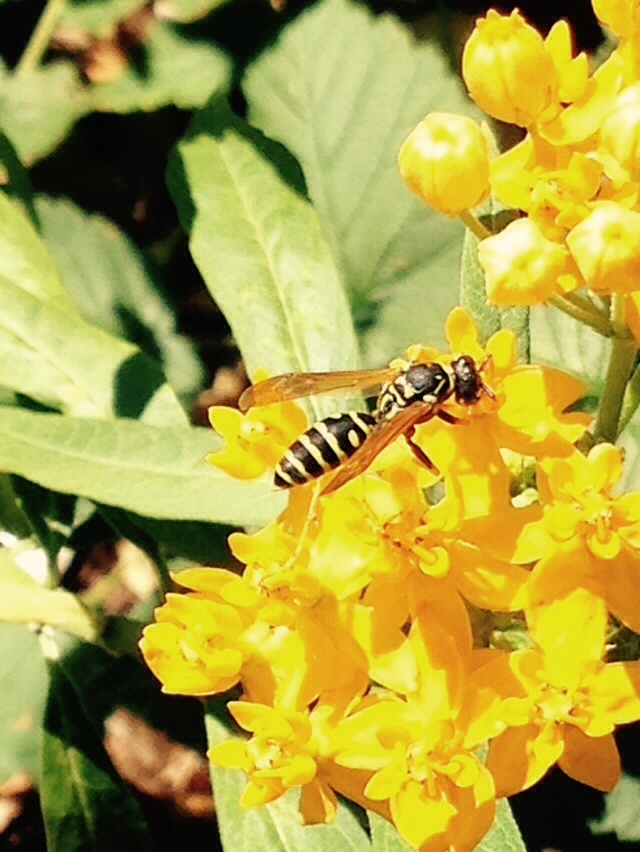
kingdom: Animalia
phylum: Arthropoda
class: Insecta
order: Hymenoptera
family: Eumenidae
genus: Polistes
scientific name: Polistes dominula
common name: Paper wasp
